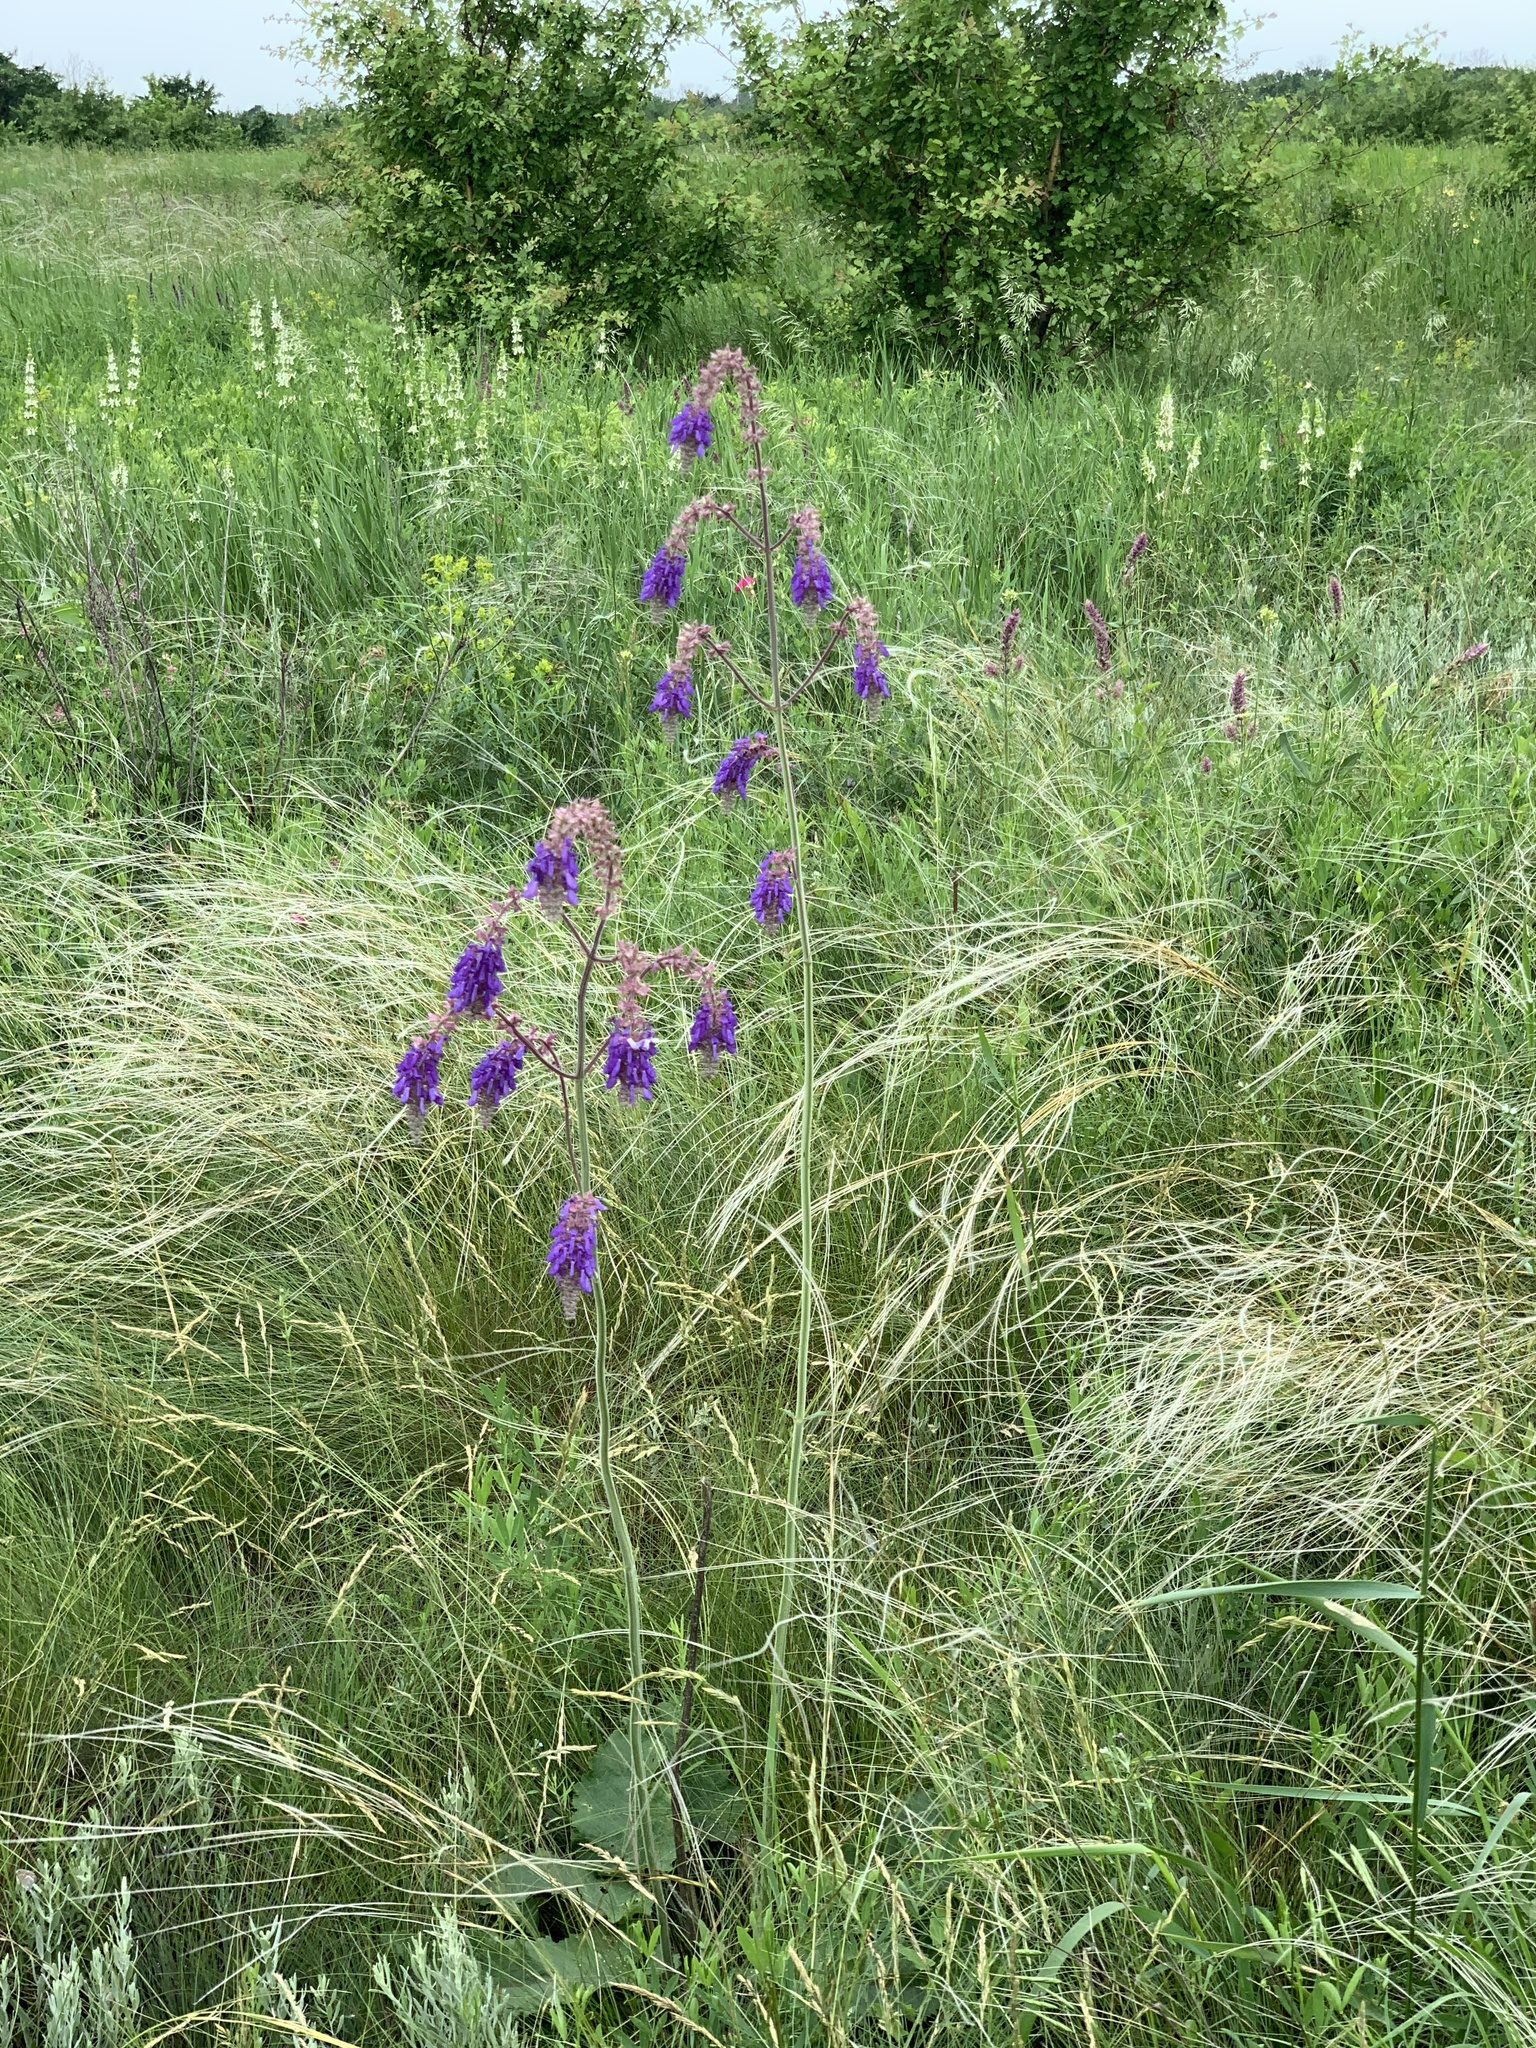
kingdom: Plantae
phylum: Tracheophyta
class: Magnoliopsida
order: Lamiales
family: Lamiaceae
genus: Salvia
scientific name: Salvia nutans
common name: Nodding sage
